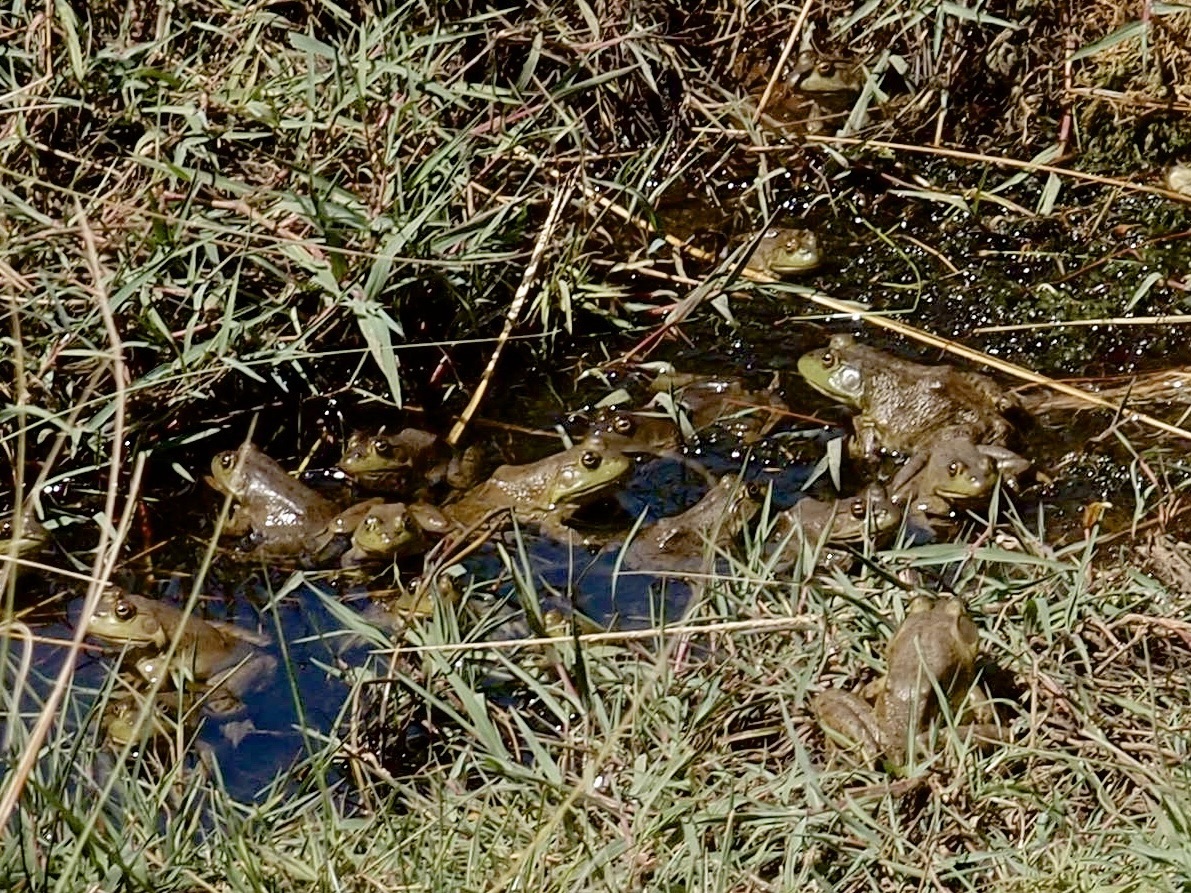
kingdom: Animalia
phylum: Chordata
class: Amphibia
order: Anura
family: Ranidae
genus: Lithobates
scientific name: Lithobates catesbeianus
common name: American bullfrog
